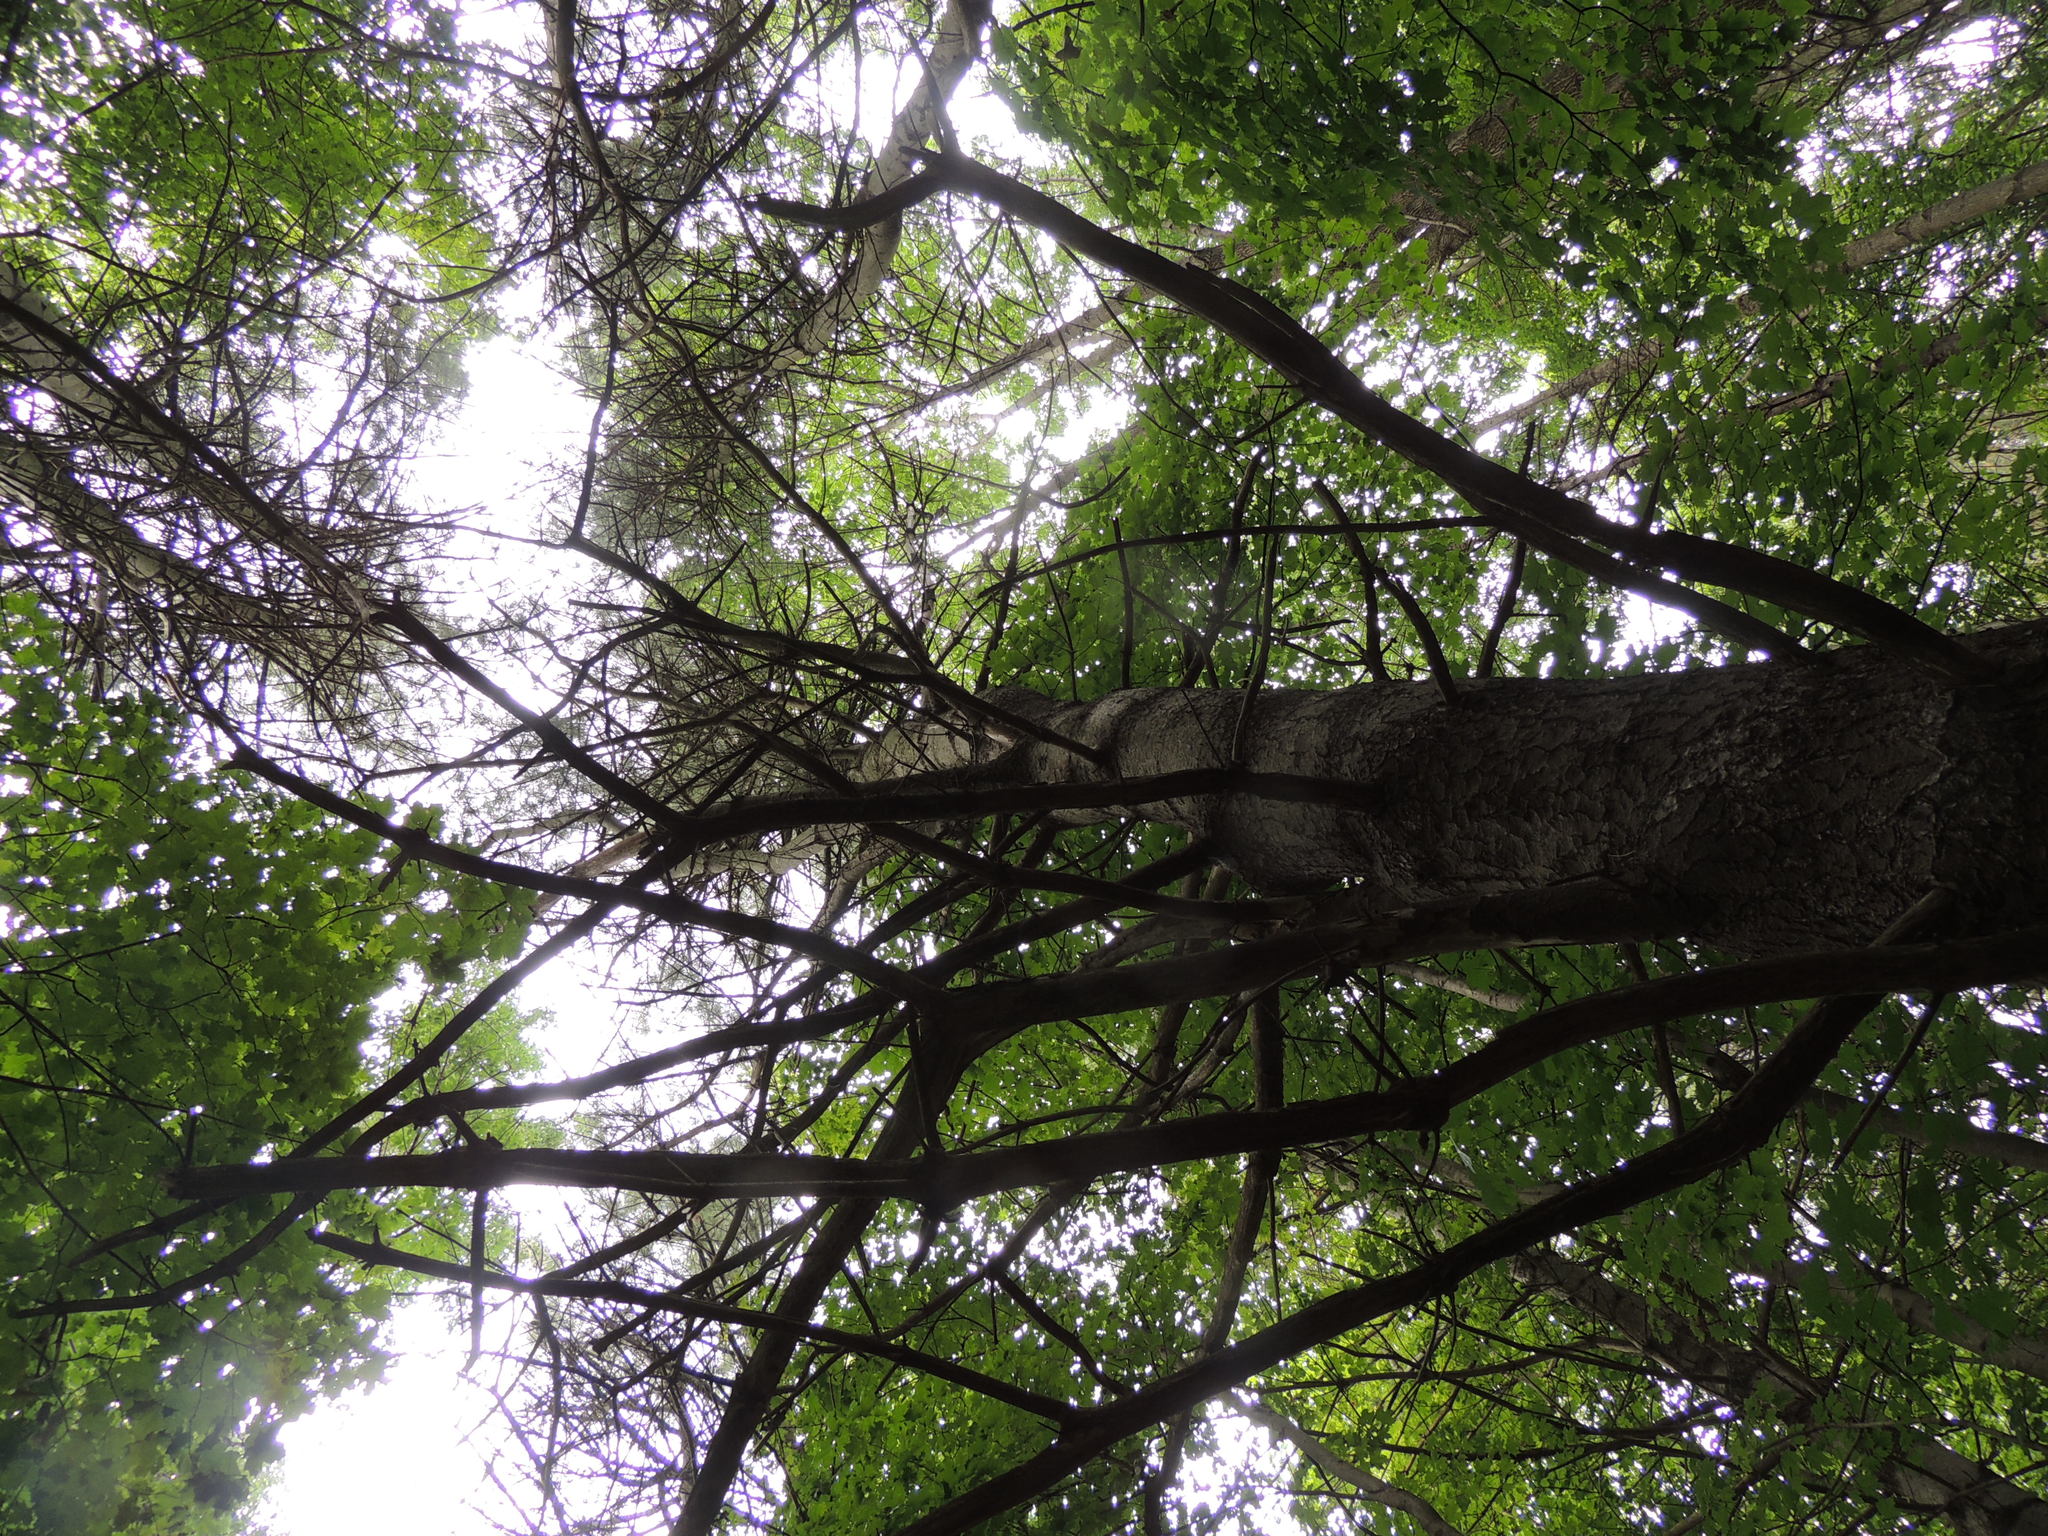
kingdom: Plantae
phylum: Tracheophyta
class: Pinopsida
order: Pinales
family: Pinaceae
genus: Pinus
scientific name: Pinus strobus
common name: Weymouth pine
